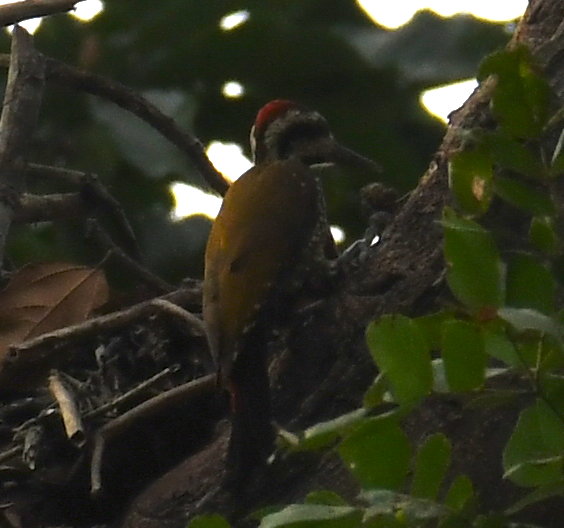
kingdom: Animalia
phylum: Chordata
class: Aves
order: Piciformes
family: Picidae
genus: Chloropicus
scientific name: Chloropicus pyrrhogaster
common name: Fire-bellied woodpecker
